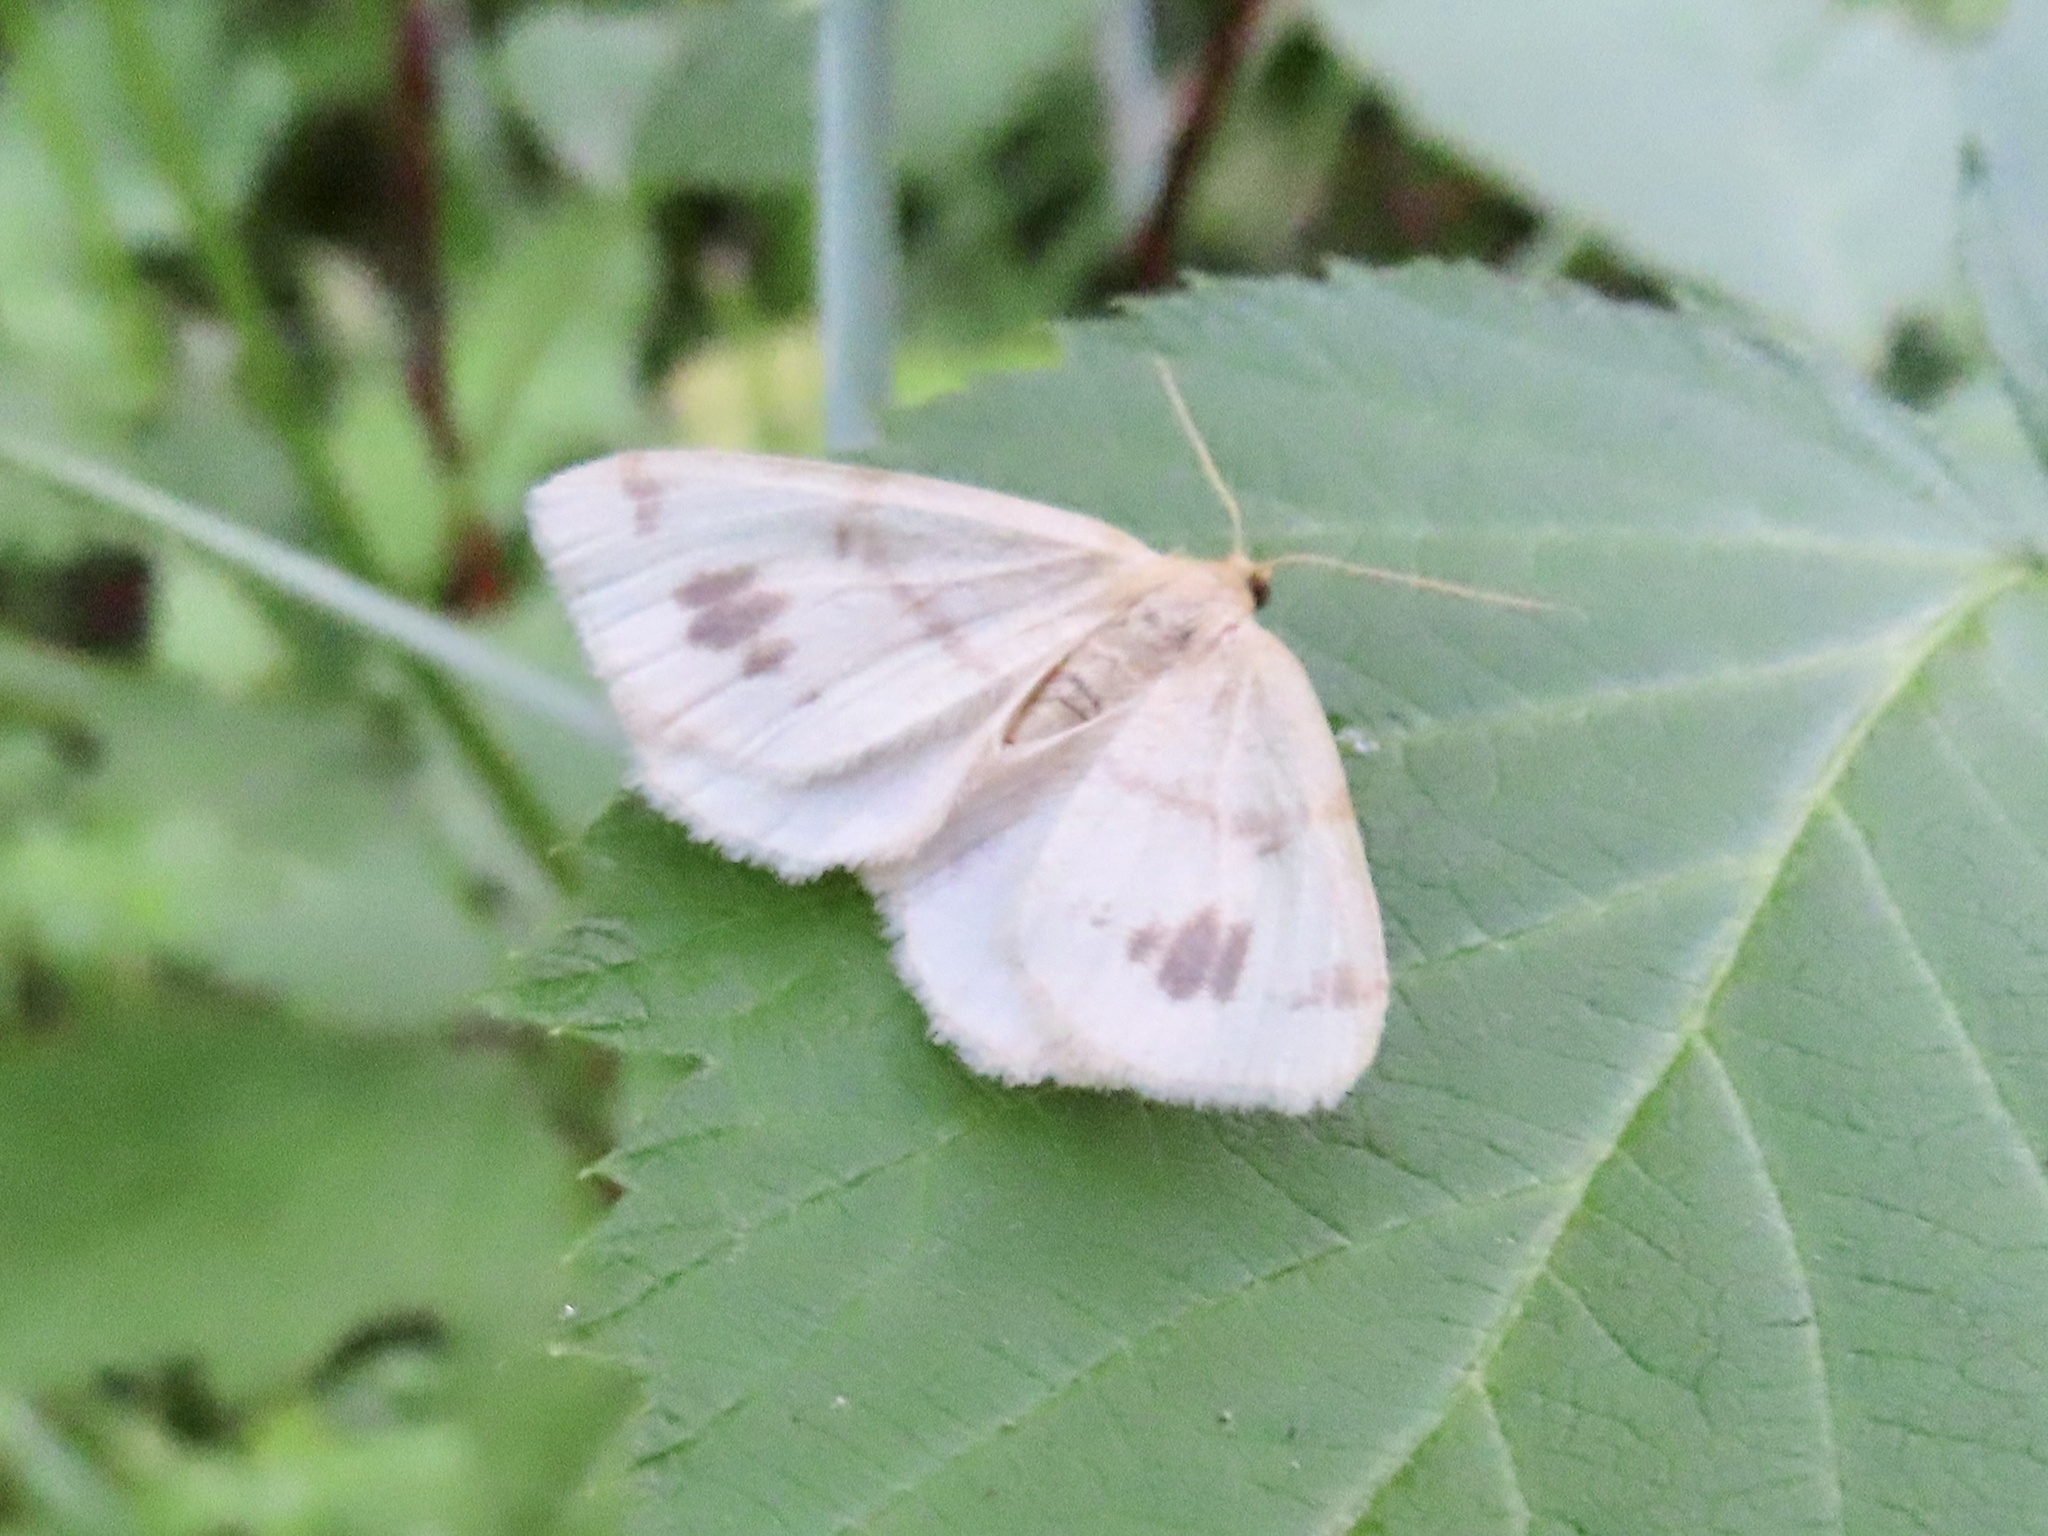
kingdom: Animalia
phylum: Arthropoda
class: Insecta
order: Lepidoptera
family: Geometridae
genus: Macaria
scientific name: Macaria ribearia
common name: Currant spanworm moth
